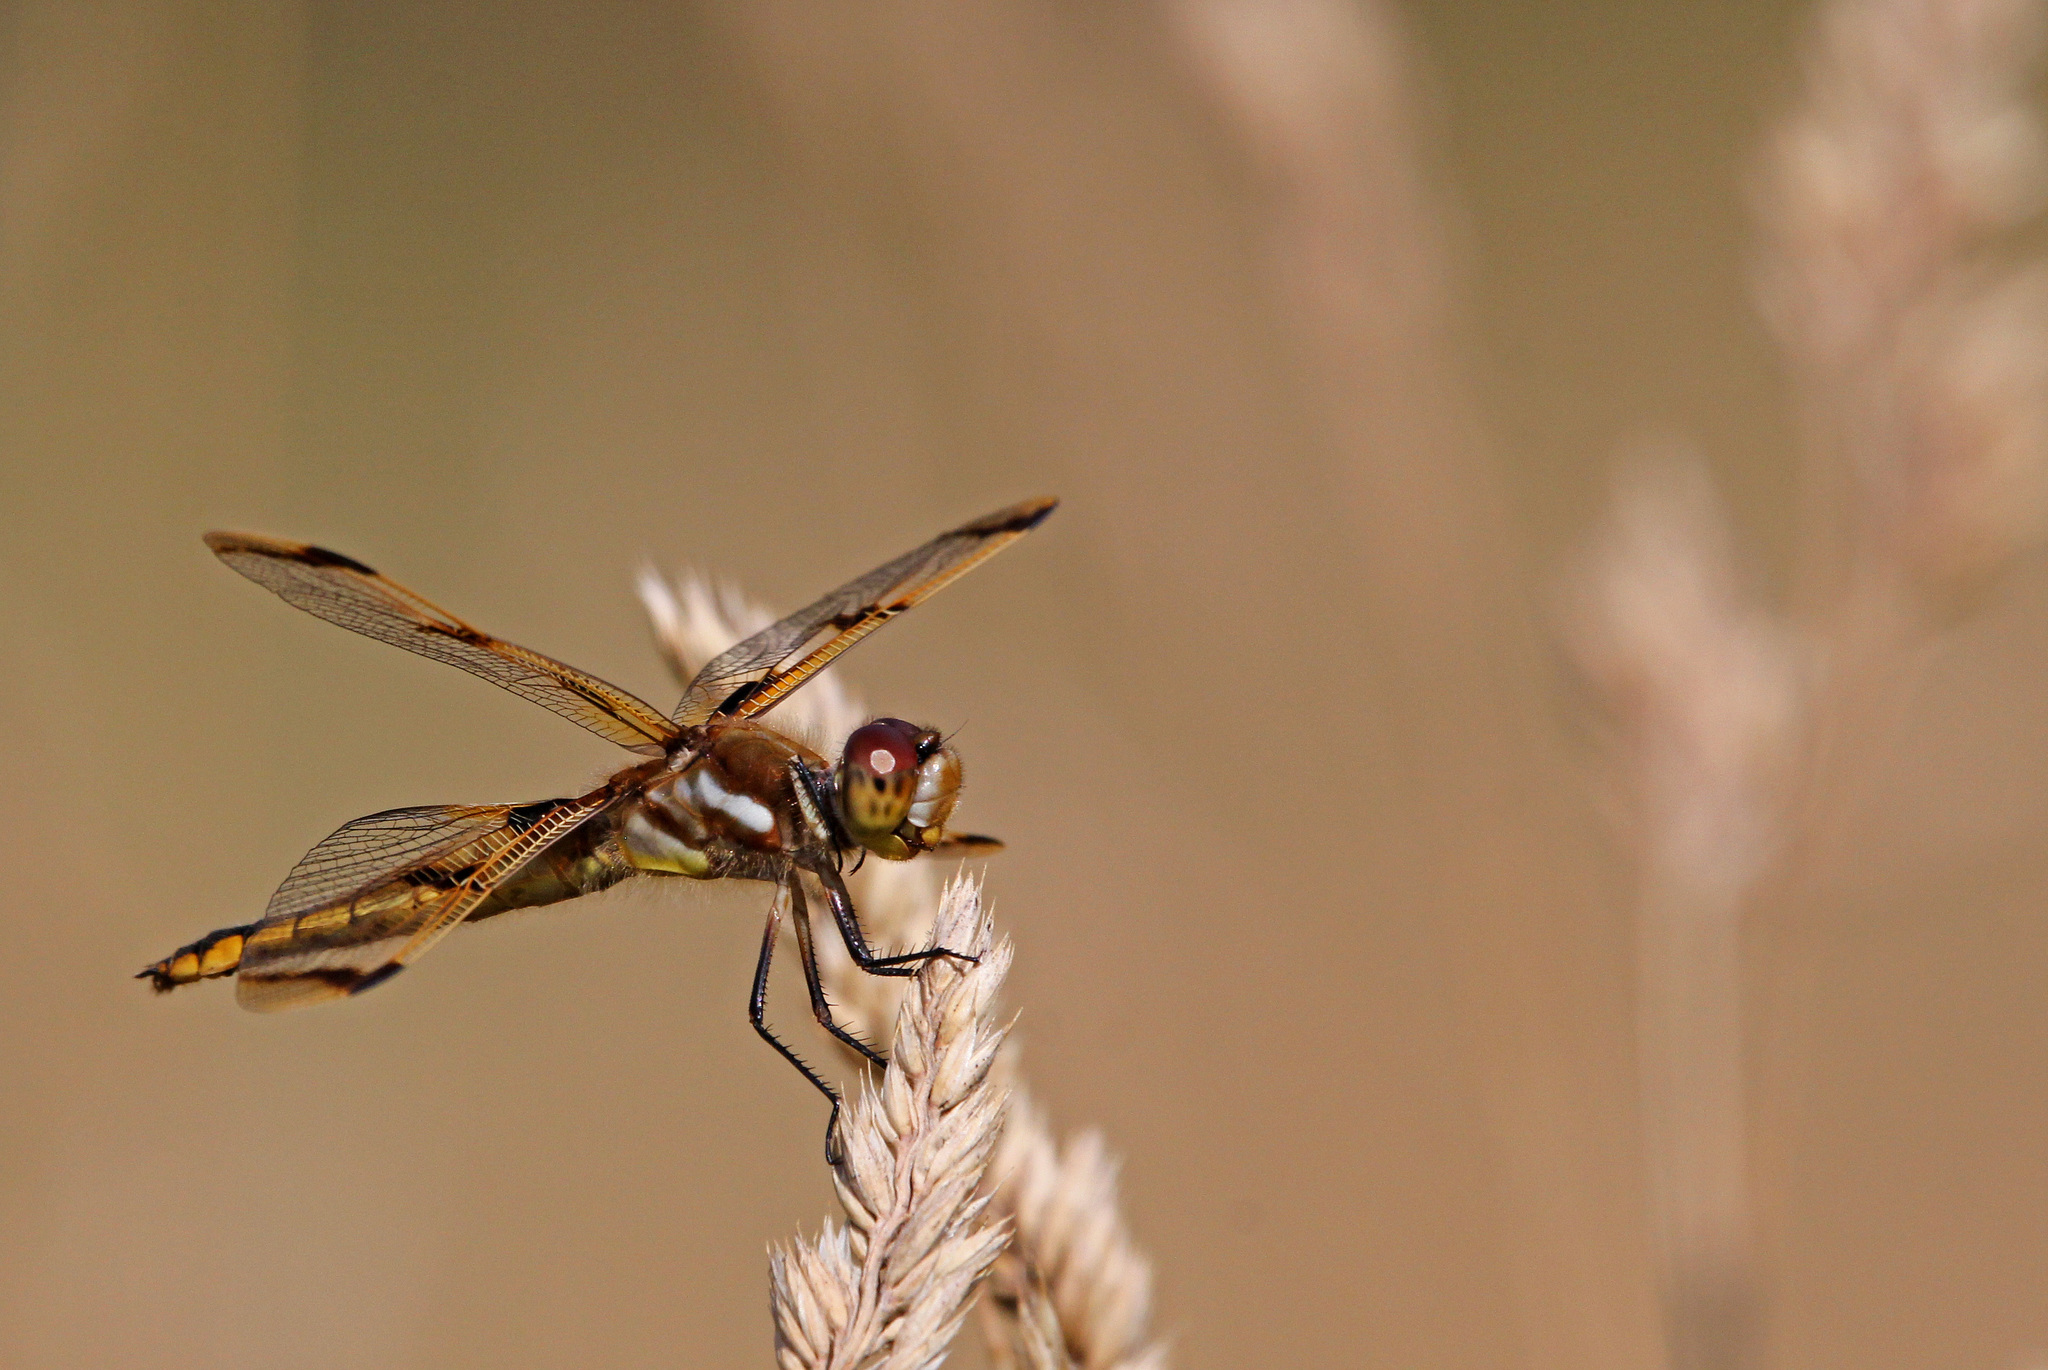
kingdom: Animalia
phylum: Arthropoda
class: Insecta
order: Odonata
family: Libellulidae
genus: Libellula
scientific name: Libellula semifasciata
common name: Painted skimmer
